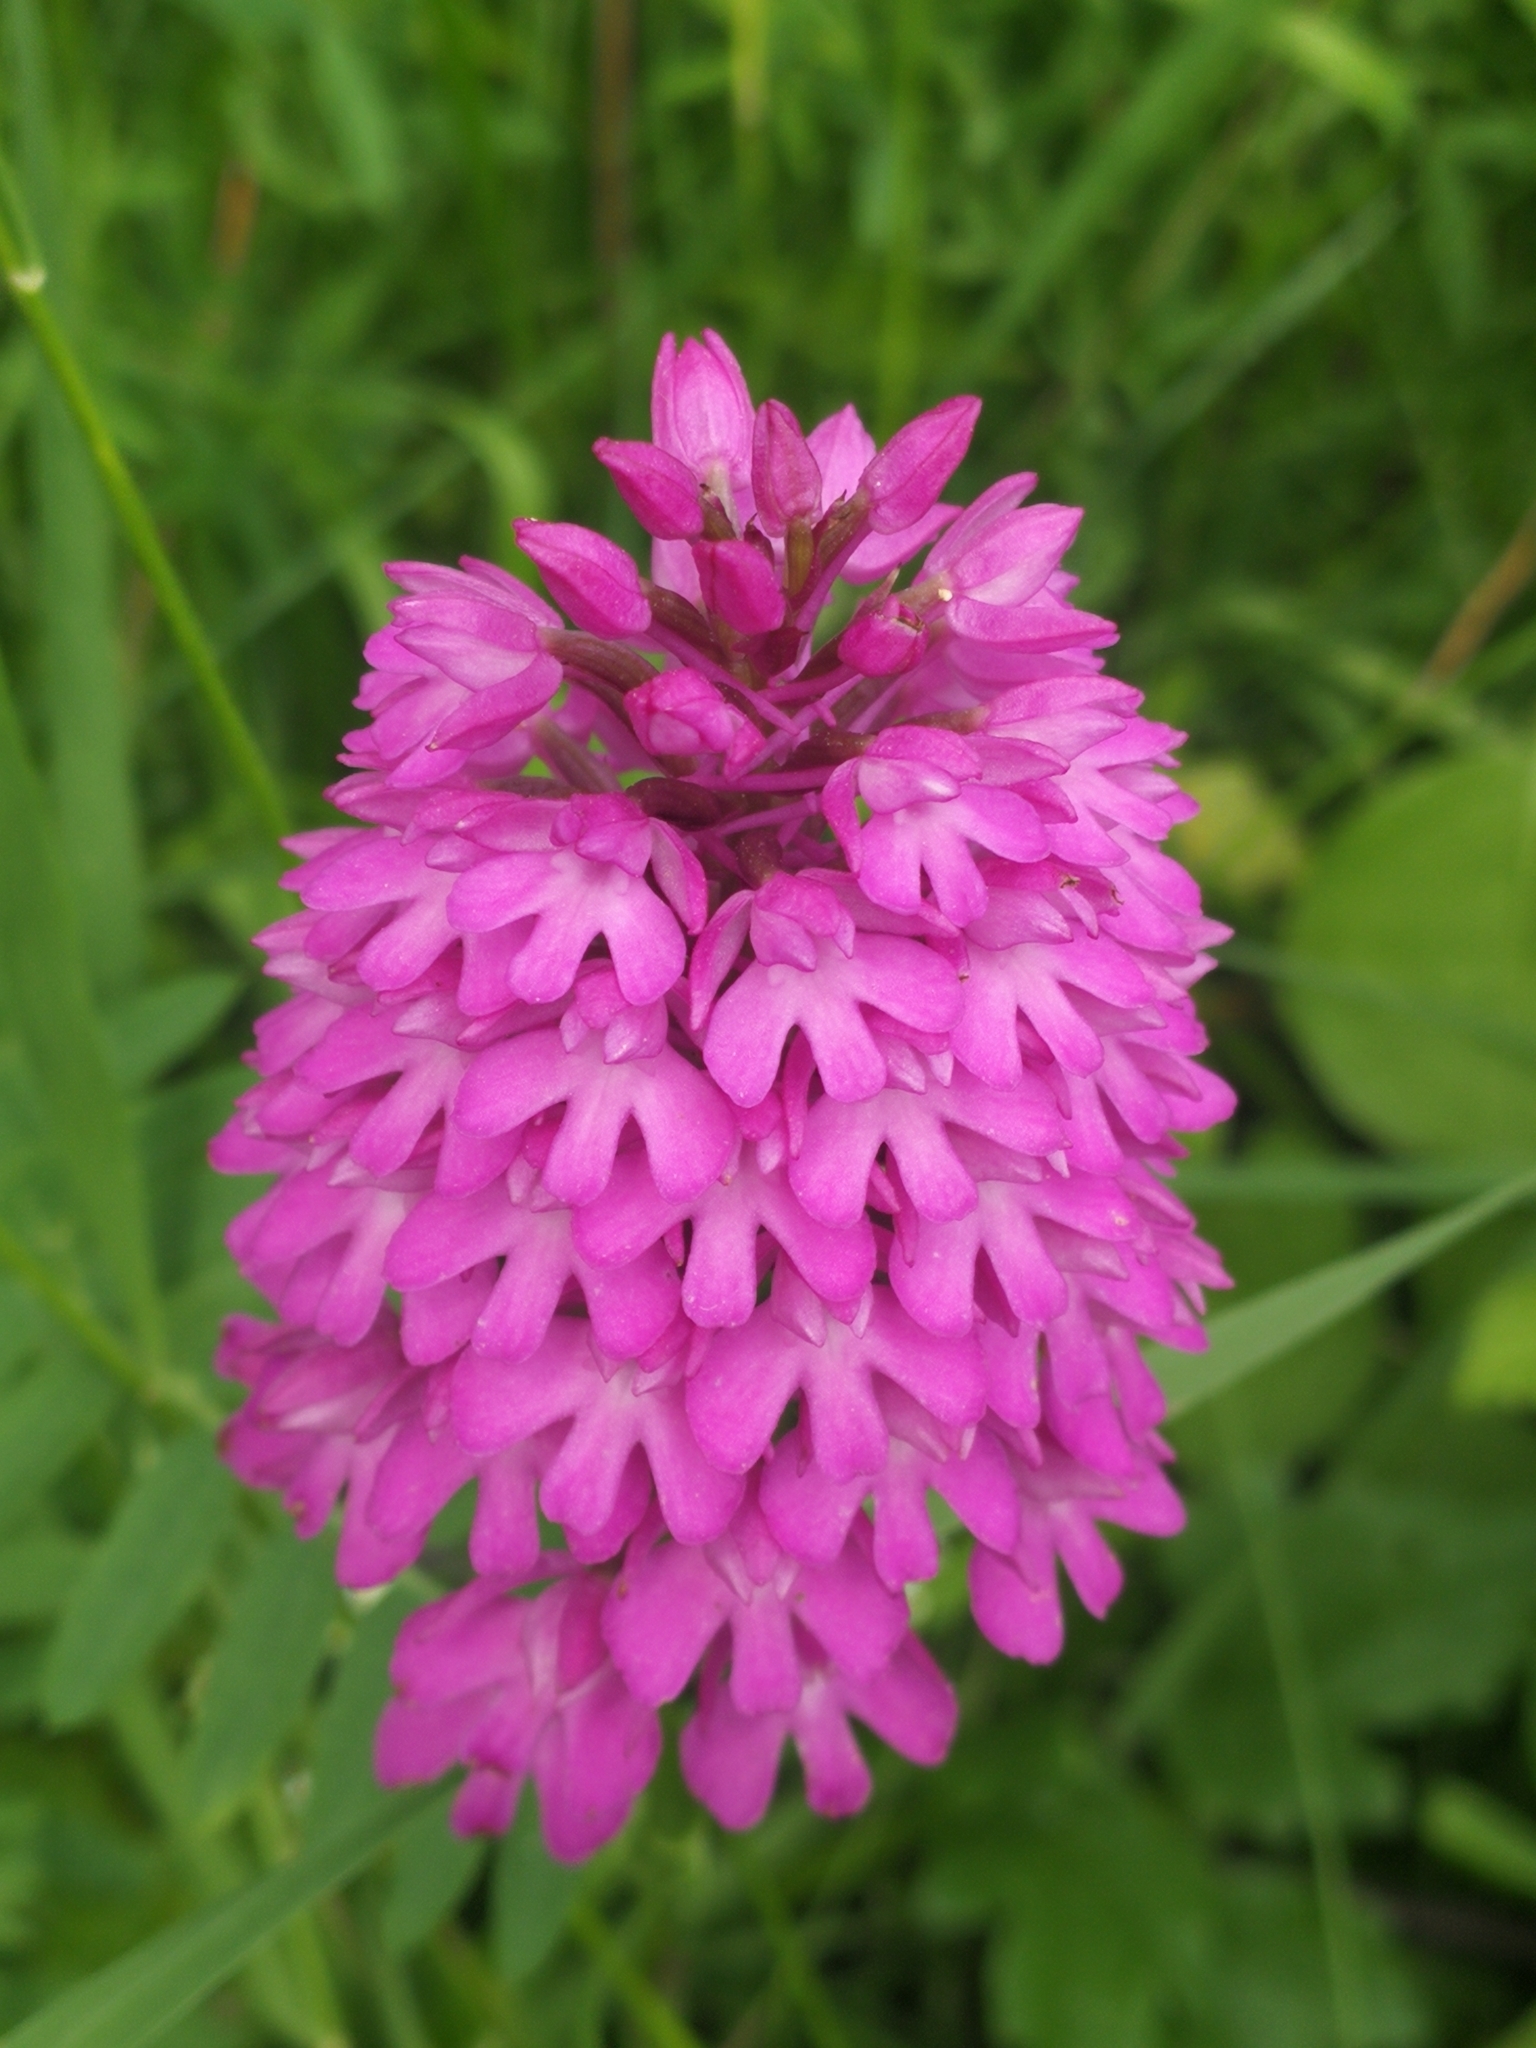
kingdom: Plantae
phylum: Tracheophyta
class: Liliopsida
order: Asparagales
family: Orchidaceae
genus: Anacamptis
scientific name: Anacamptis pyramidalis
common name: Pyramidal orchid
